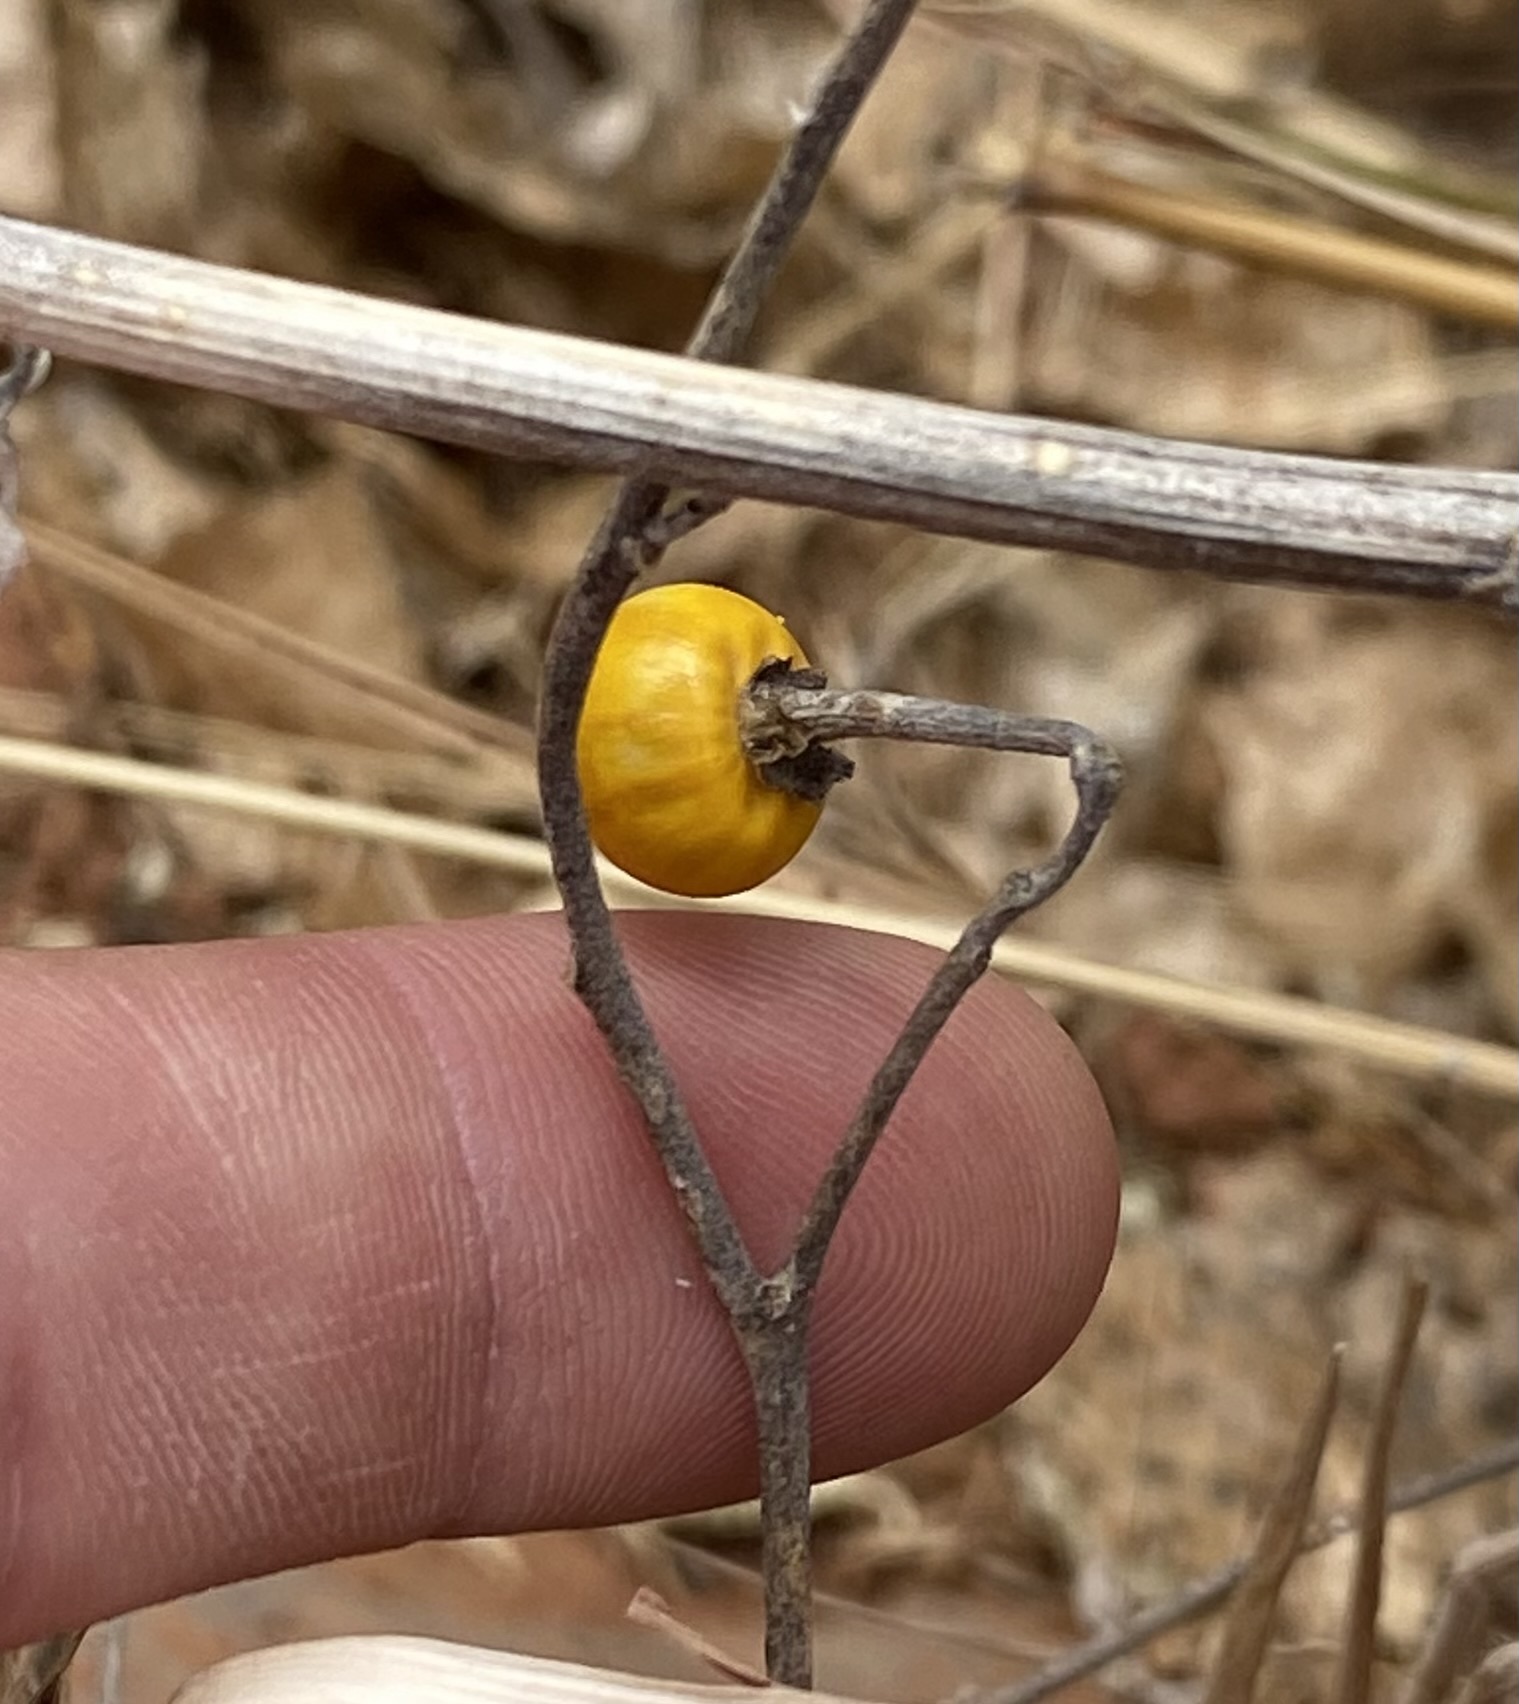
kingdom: Plantae
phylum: Tracheophyta
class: Magnoliopsida
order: Solanales
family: Solanaceae
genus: Solanum
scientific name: Solanum elaeagnifolium
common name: Silverleaf nightshade
